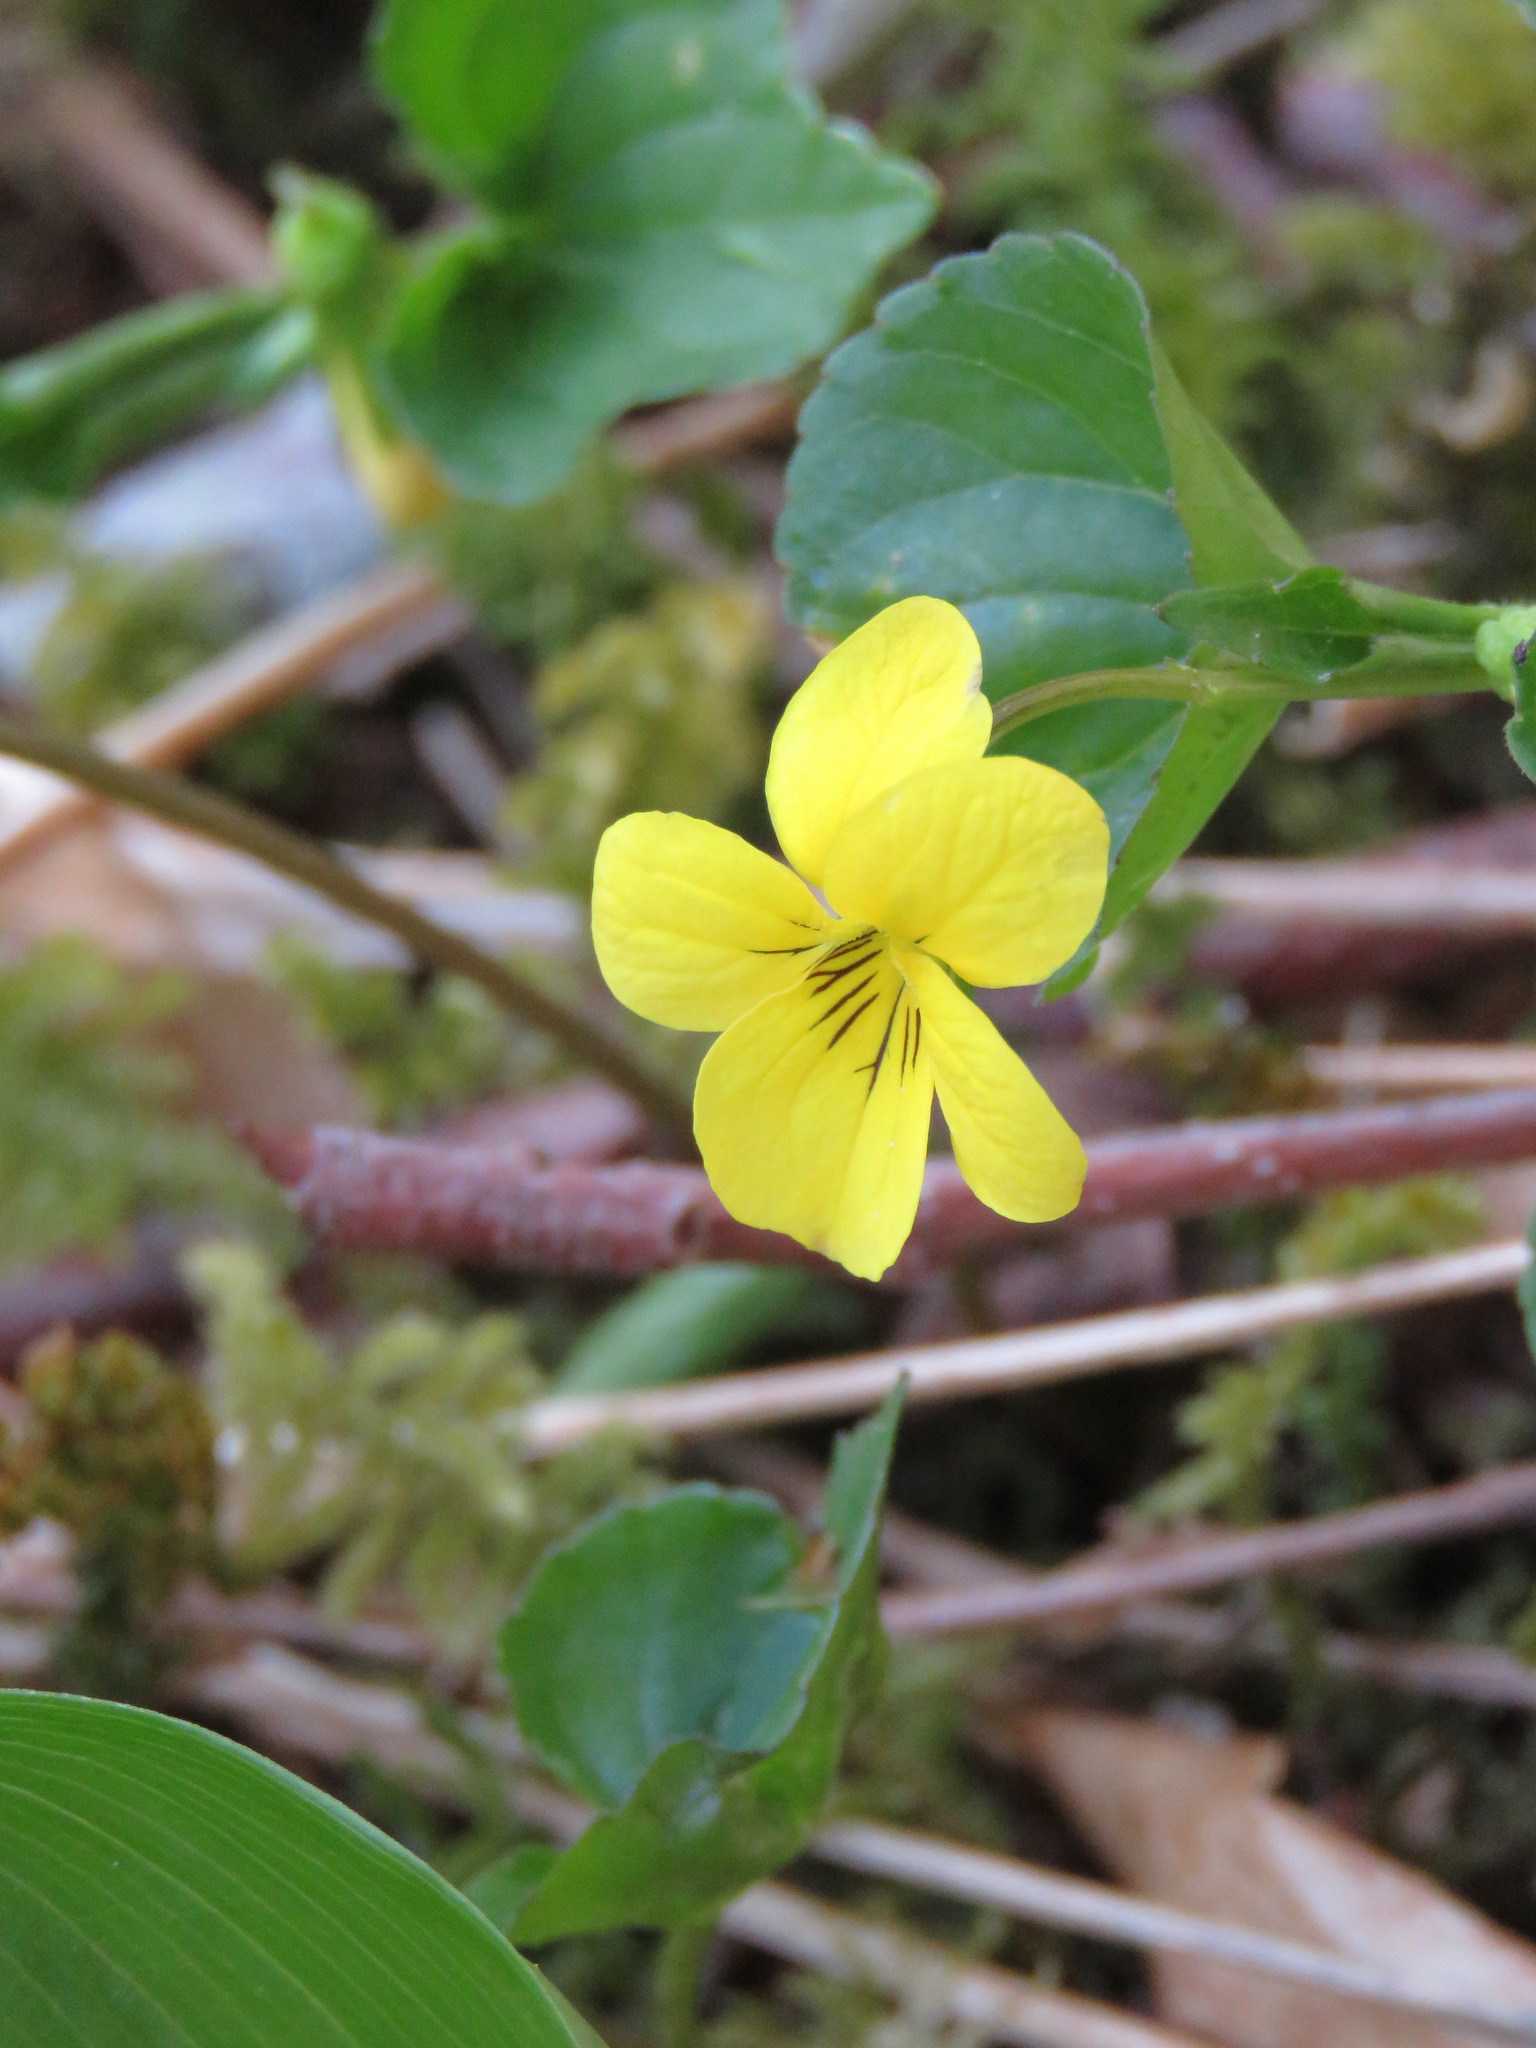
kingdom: Plantae
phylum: Tracheophyta
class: Magnoliopsida
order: Malpighiales
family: Violaceae
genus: Viola
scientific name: Viola glabella
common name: Stream violet
